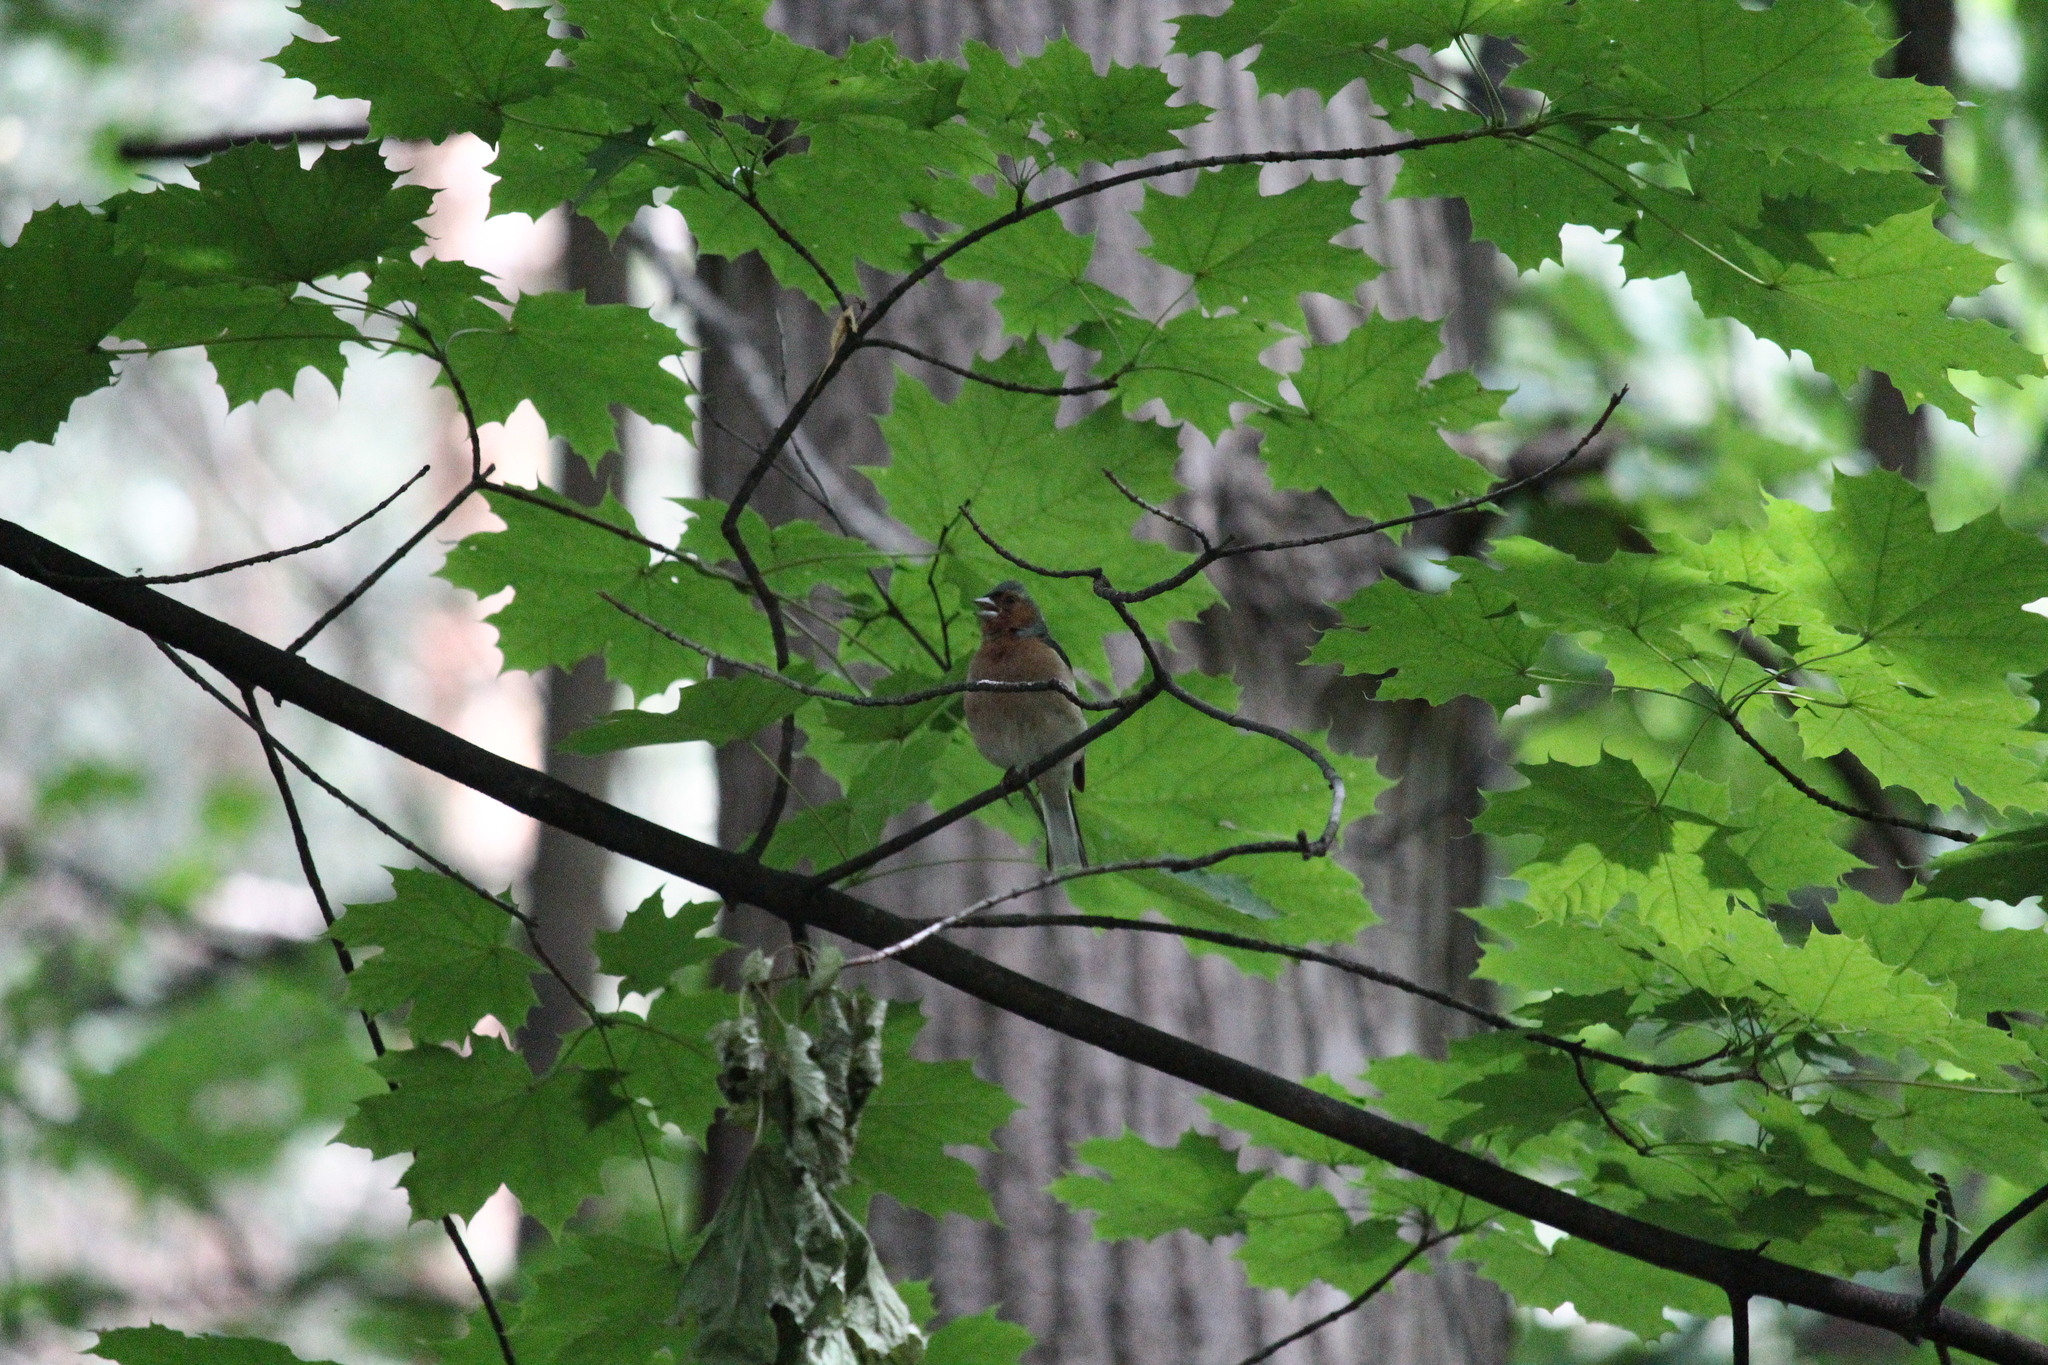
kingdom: Animalia
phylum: Chordata
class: Aves
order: Passeriformes
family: Fringillidae
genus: Fringilla
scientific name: Fringilla coelebs
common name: Common chaffinch
